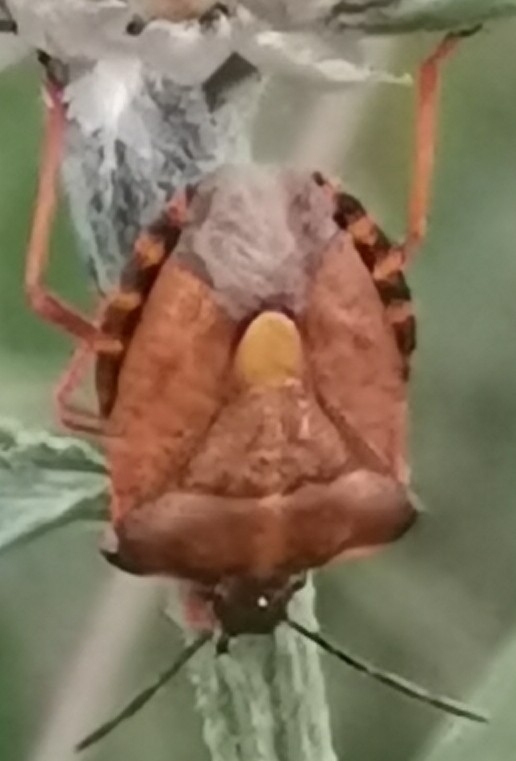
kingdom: Animalia
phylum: Arthropoda
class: Insecta
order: Hemiptera
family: Pentatomidae
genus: Carpocoris
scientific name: Carpocoris purpureipennis
